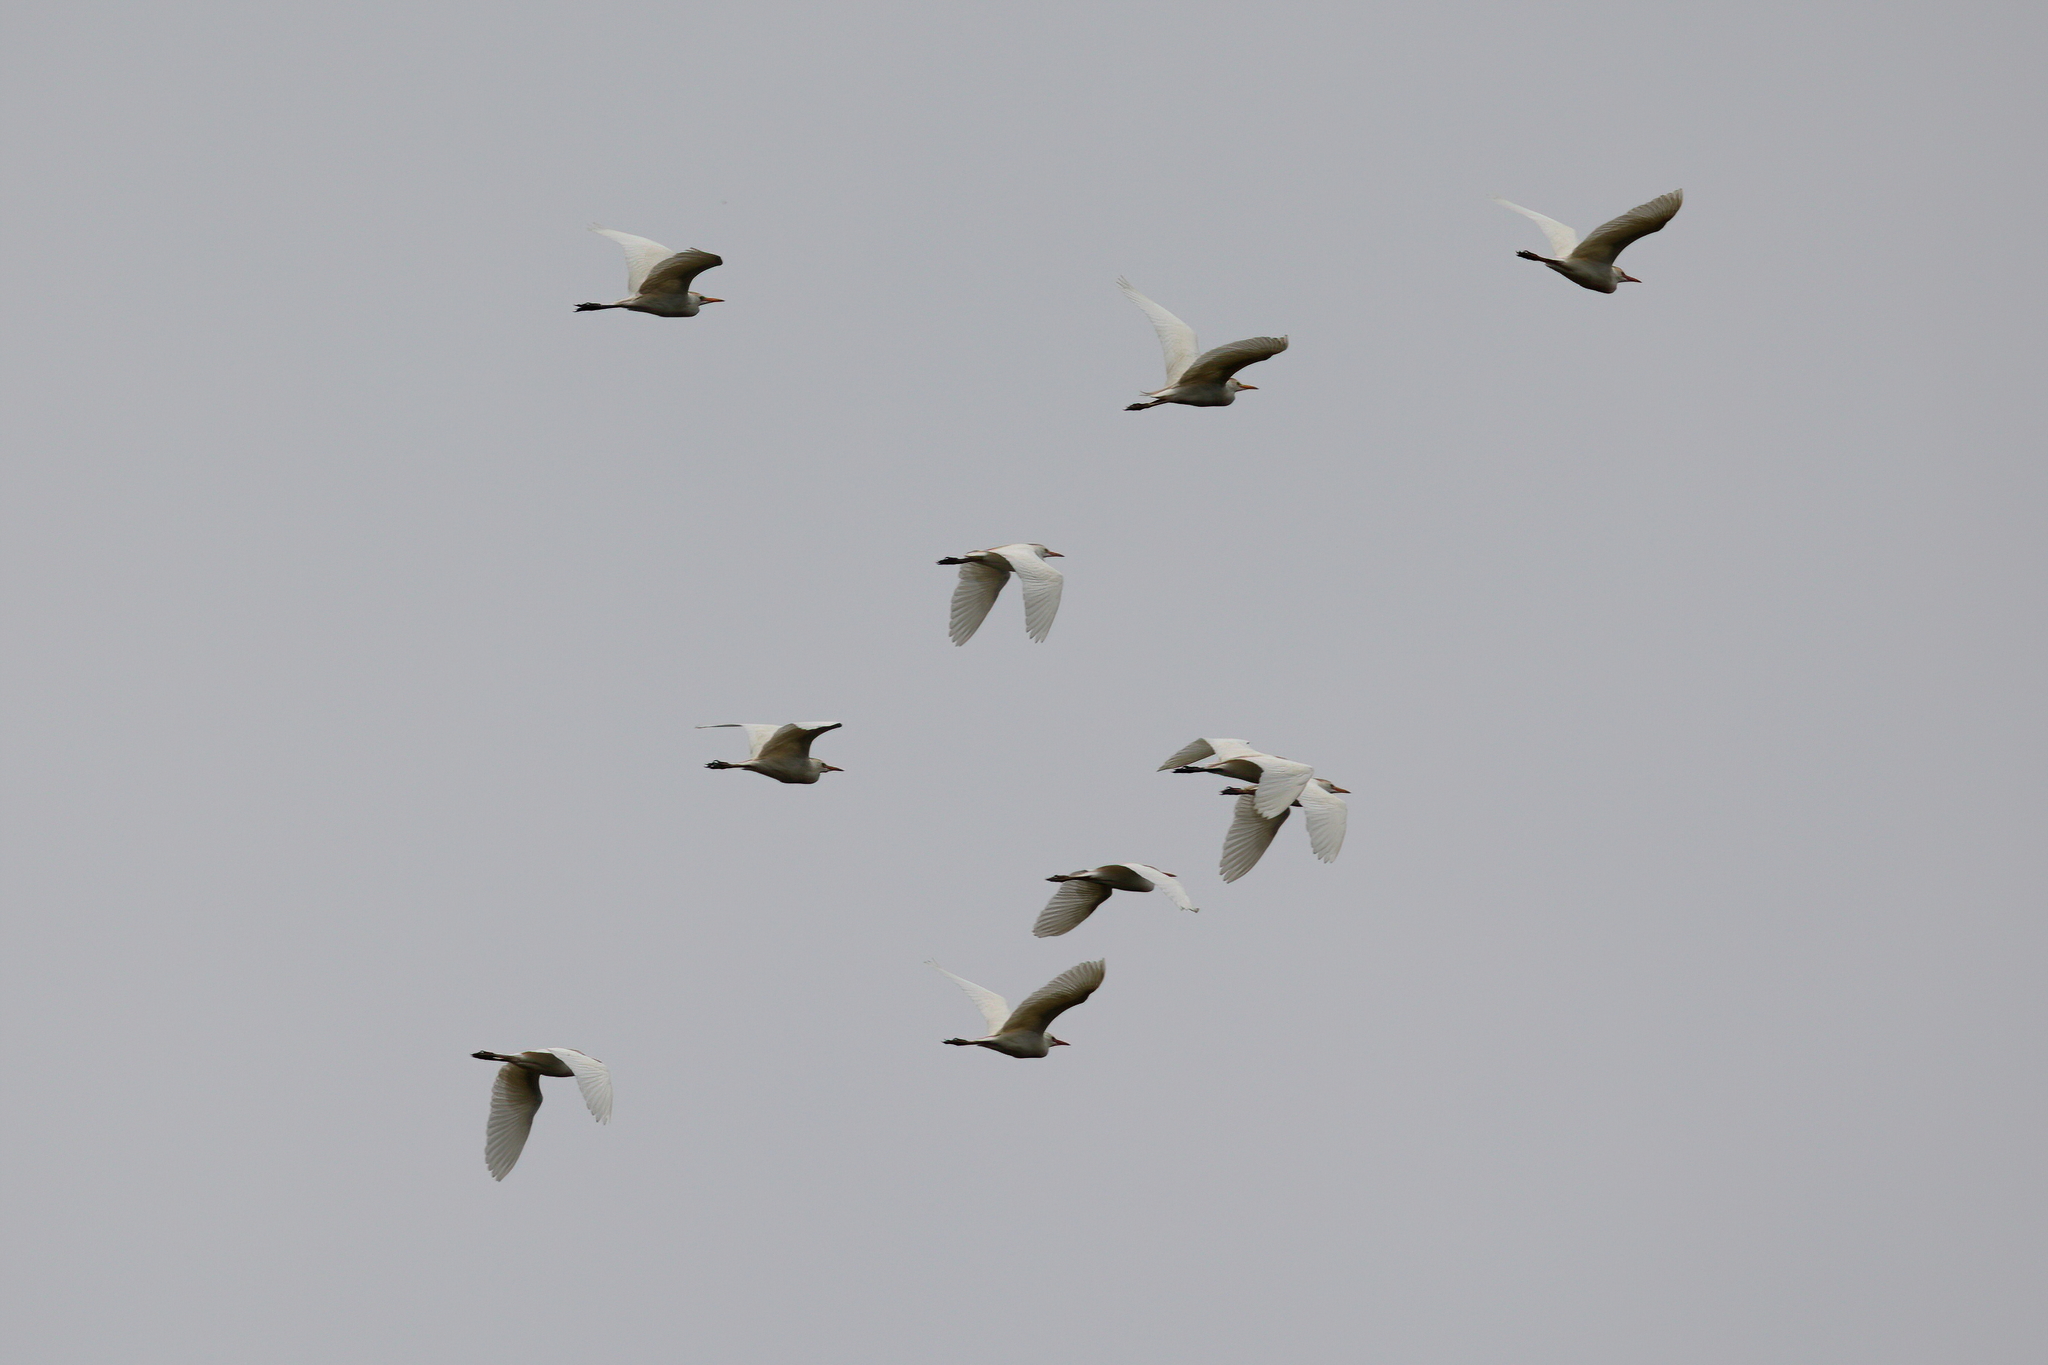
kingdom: Animalia
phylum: Chordata
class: Aves
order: Pelecaniformes
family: Ardeidae
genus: Bubulcus
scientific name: Bubulcus ibis
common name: Cattle egret
